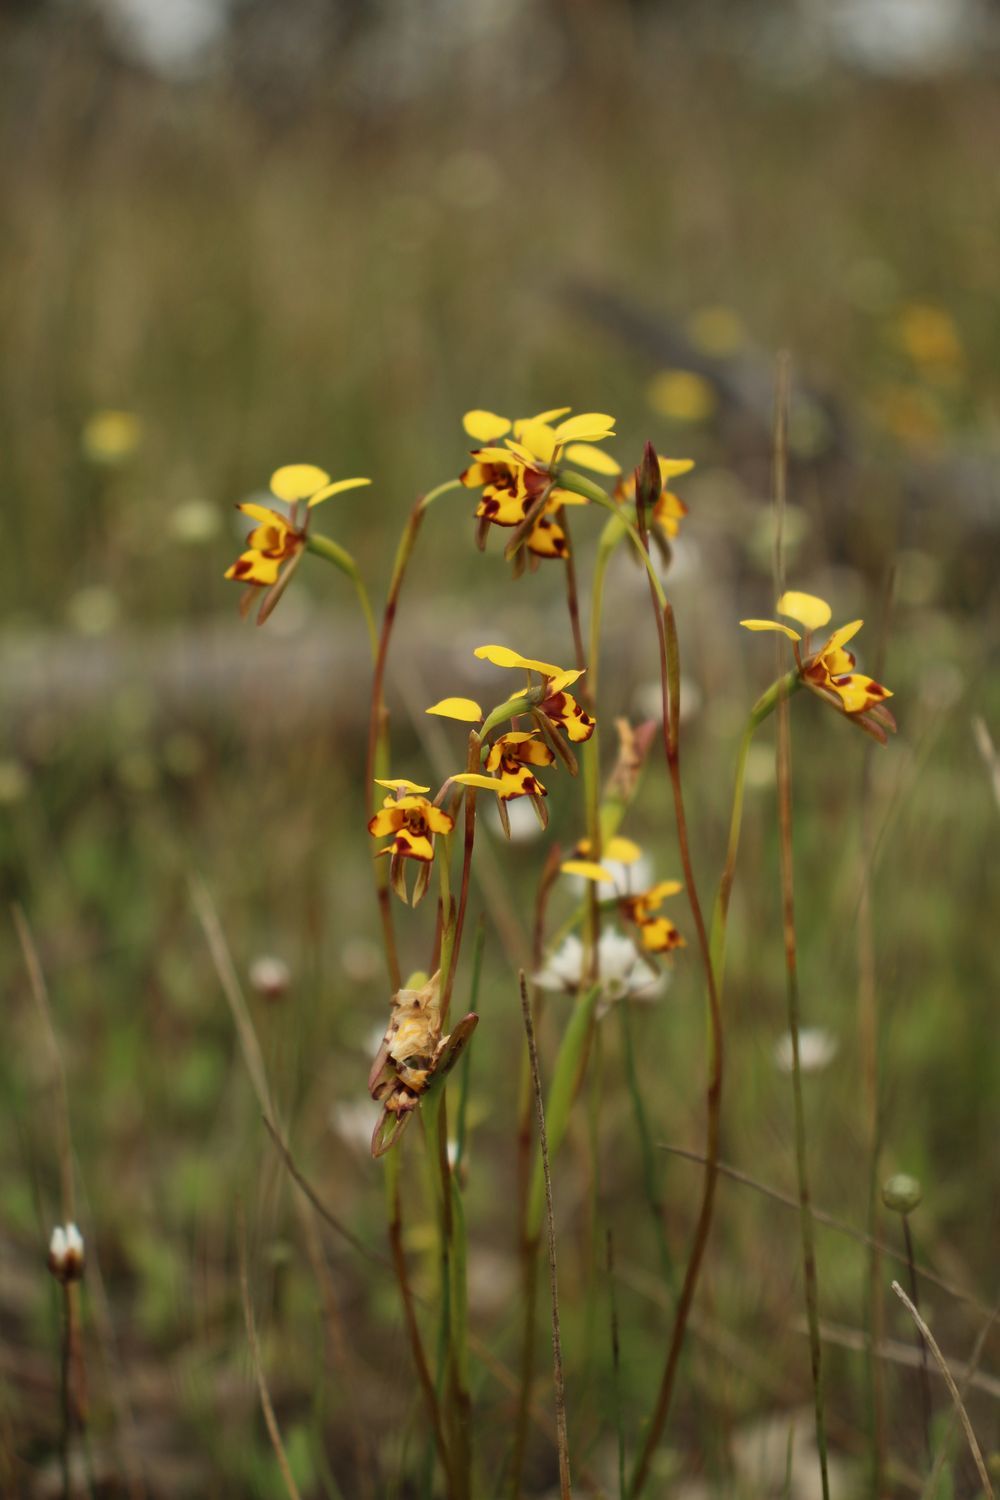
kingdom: Plantae
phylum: Tracheophyta
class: Liliopsida
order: Asparagales
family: Orchidaceae
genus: Diuris
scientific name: Diuris decrementum
